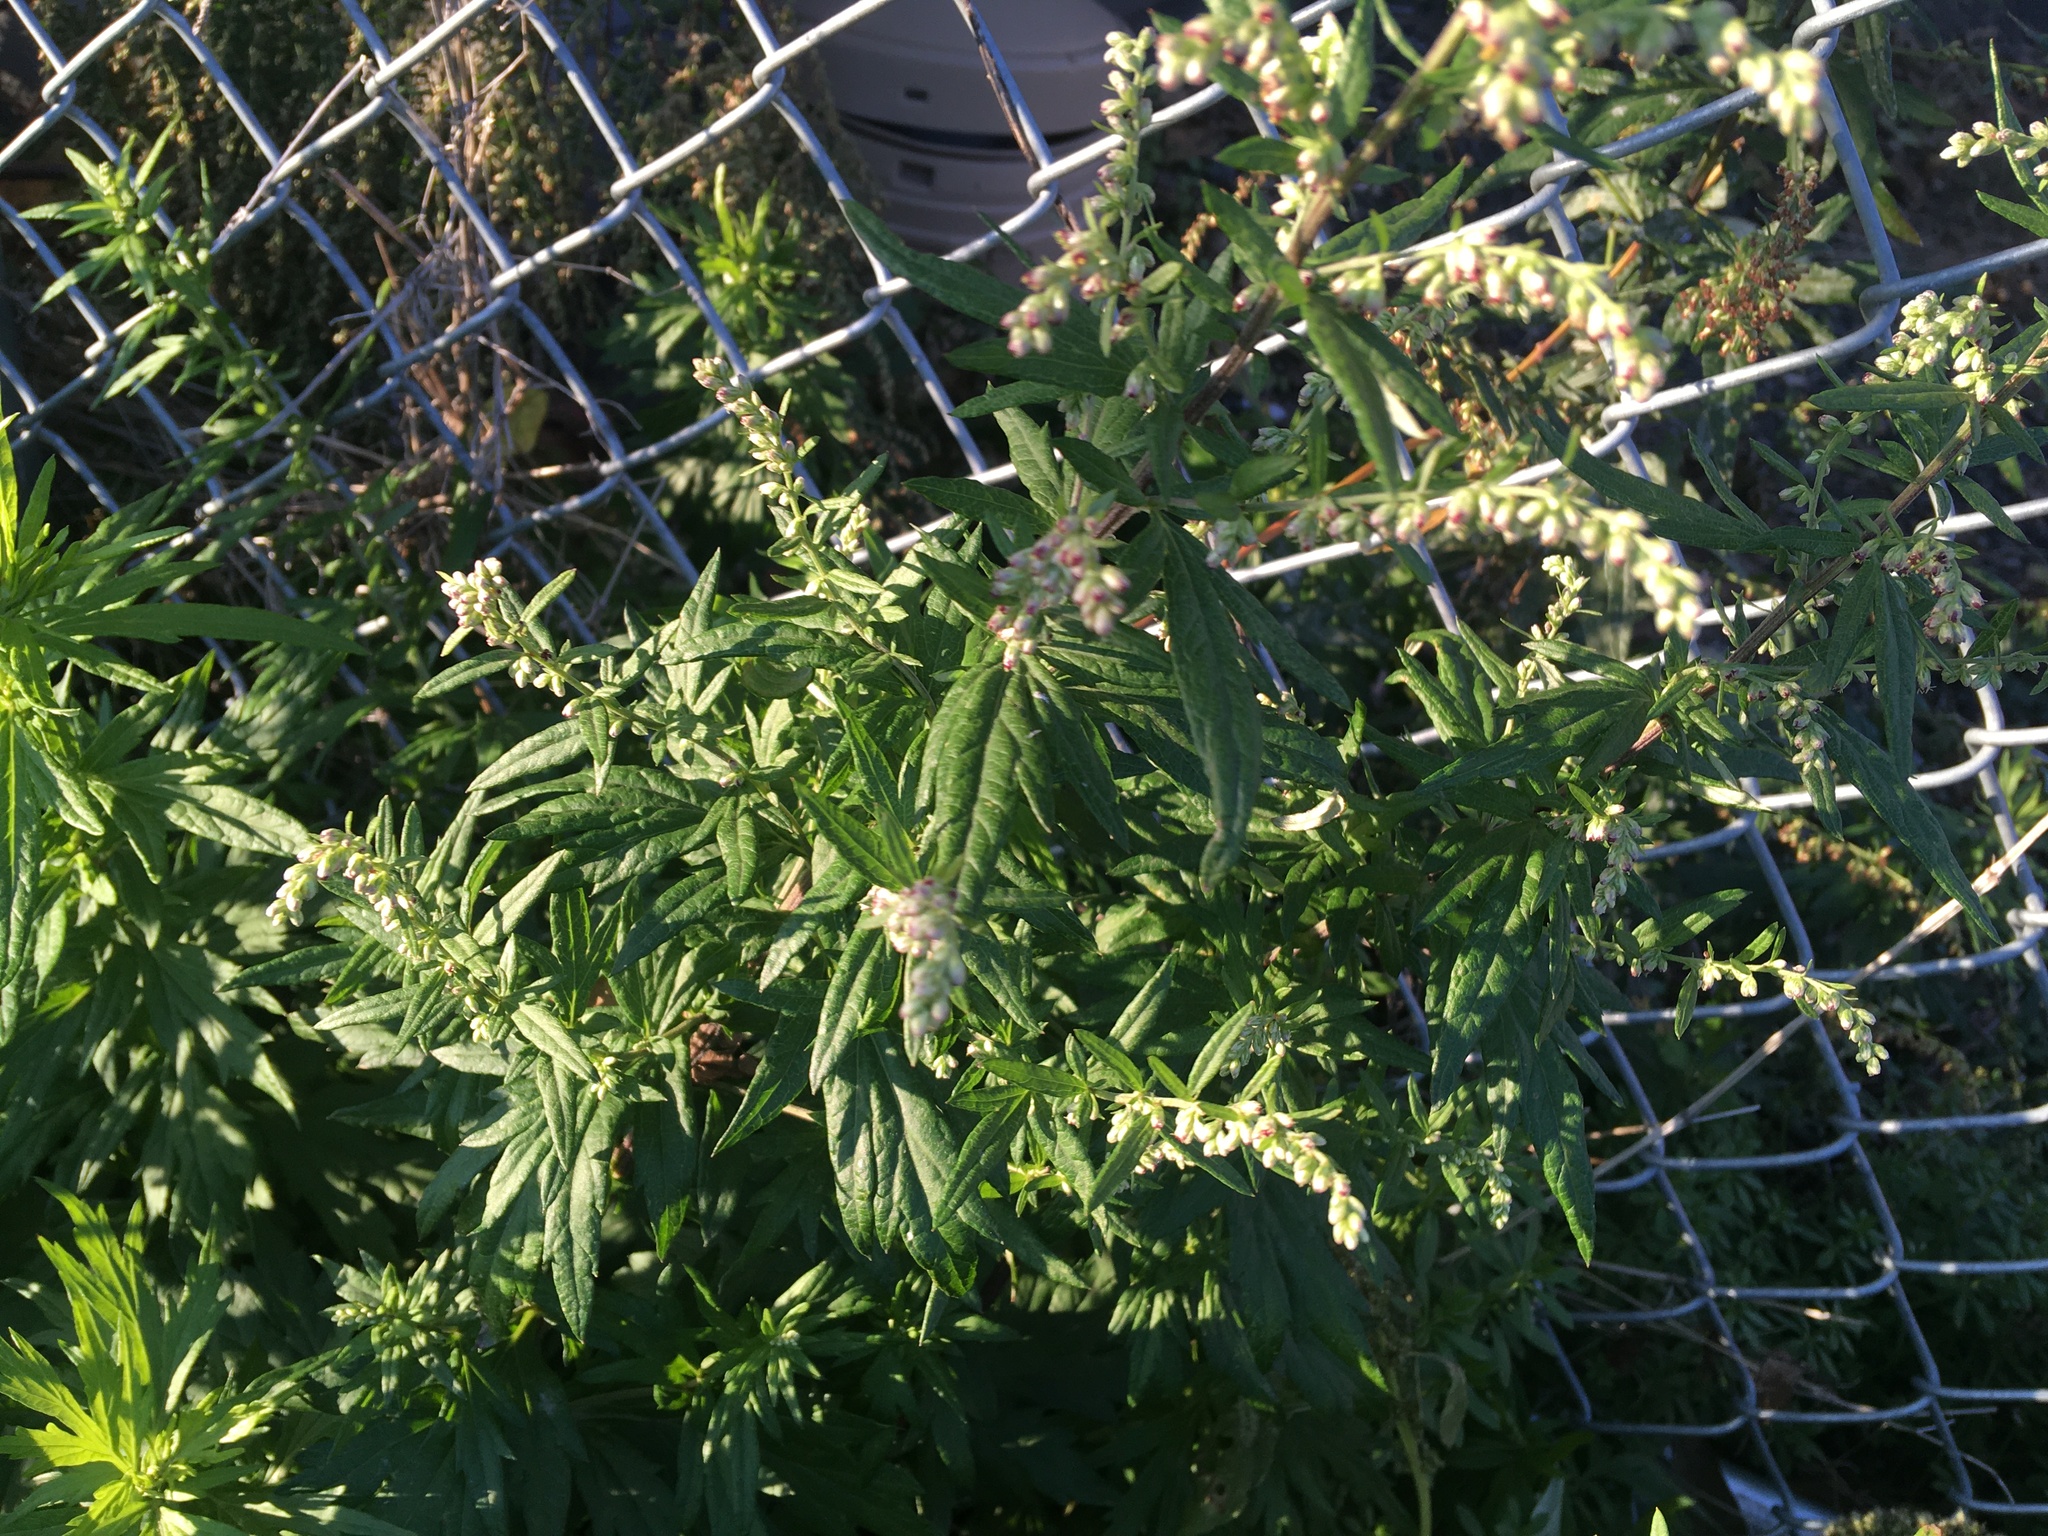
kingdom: Plantae
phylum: Tracheophyta
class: Magnoliopsida
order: Asterales
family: Asteraceae
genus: Artemisia
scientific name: Artemisia vulgaris
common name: Mugwort
